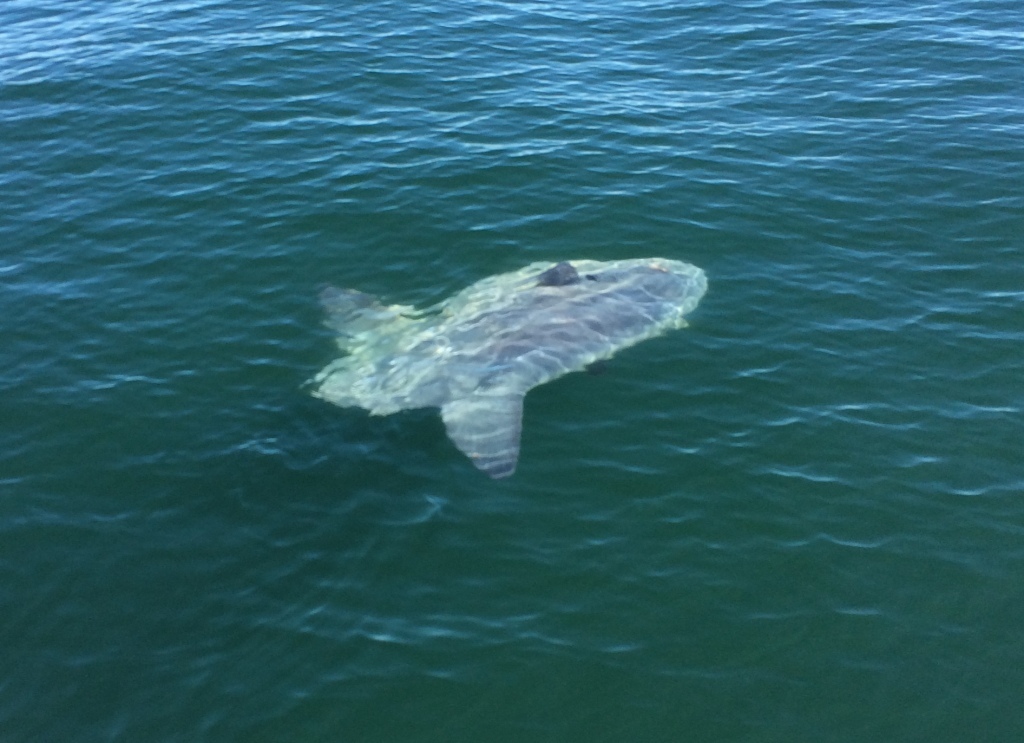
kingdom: Animalia
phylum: Chordata
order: Tetraodontiformes
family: Molidae
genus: Mola
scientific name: Mola mola
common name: Ocean sunfish
